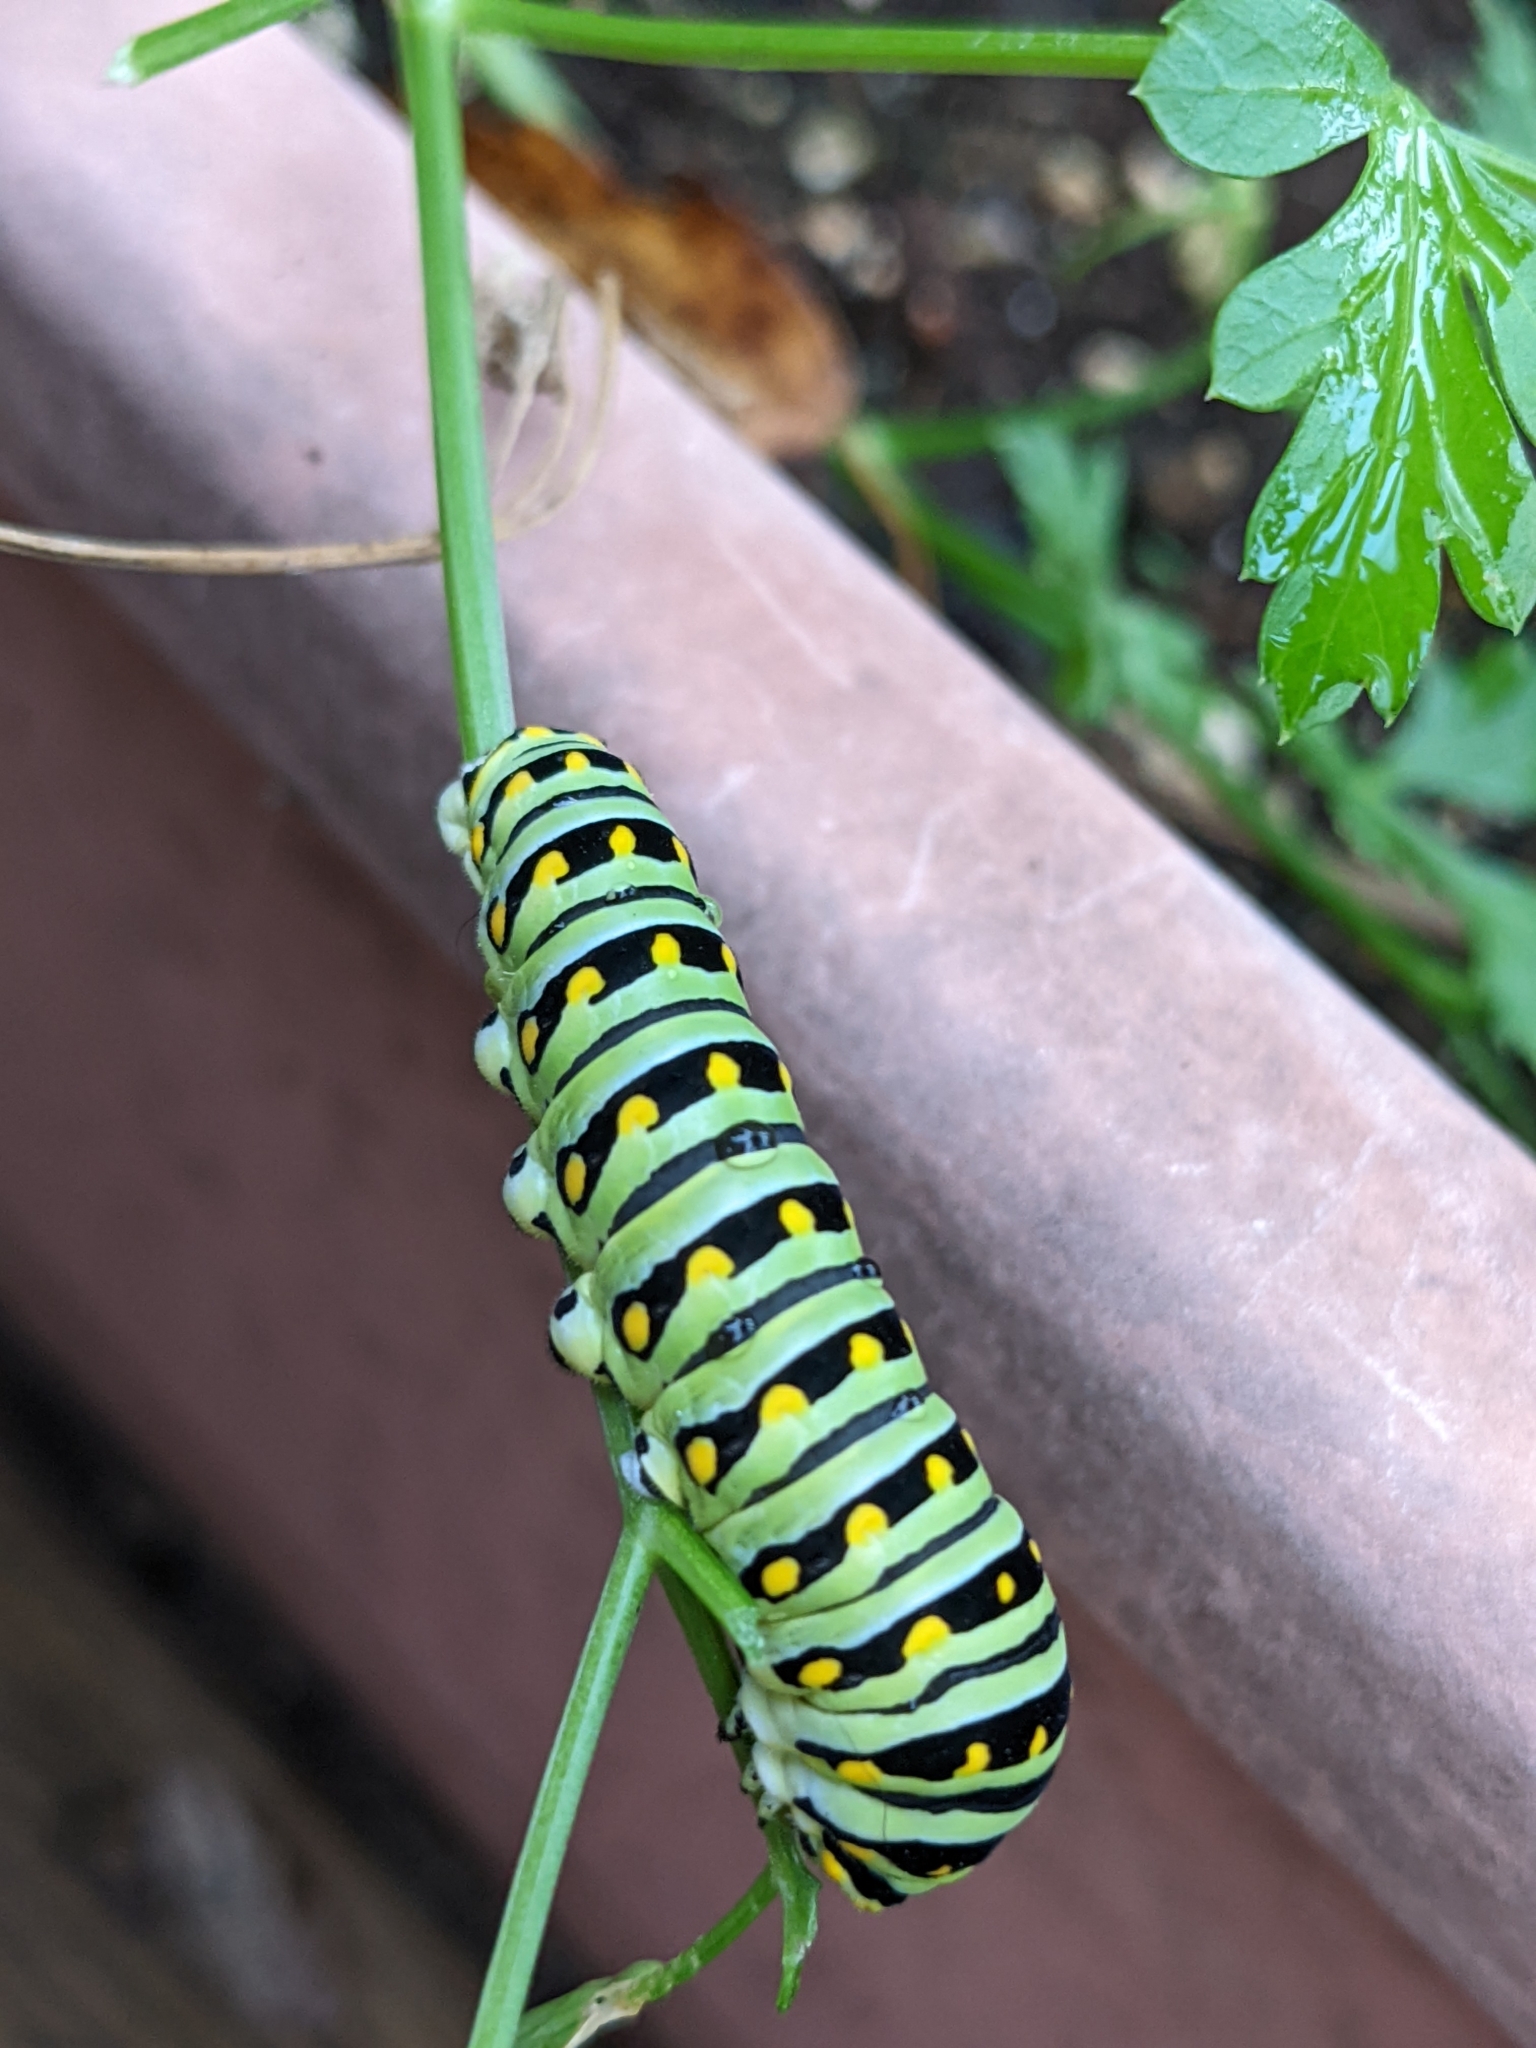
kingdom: Animalia
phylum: Arthropoda
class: Insecta
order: Lepidoptera
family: Papilionidae
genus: Papilio
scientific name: Papilio polyxenes
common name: Black swallowtail
